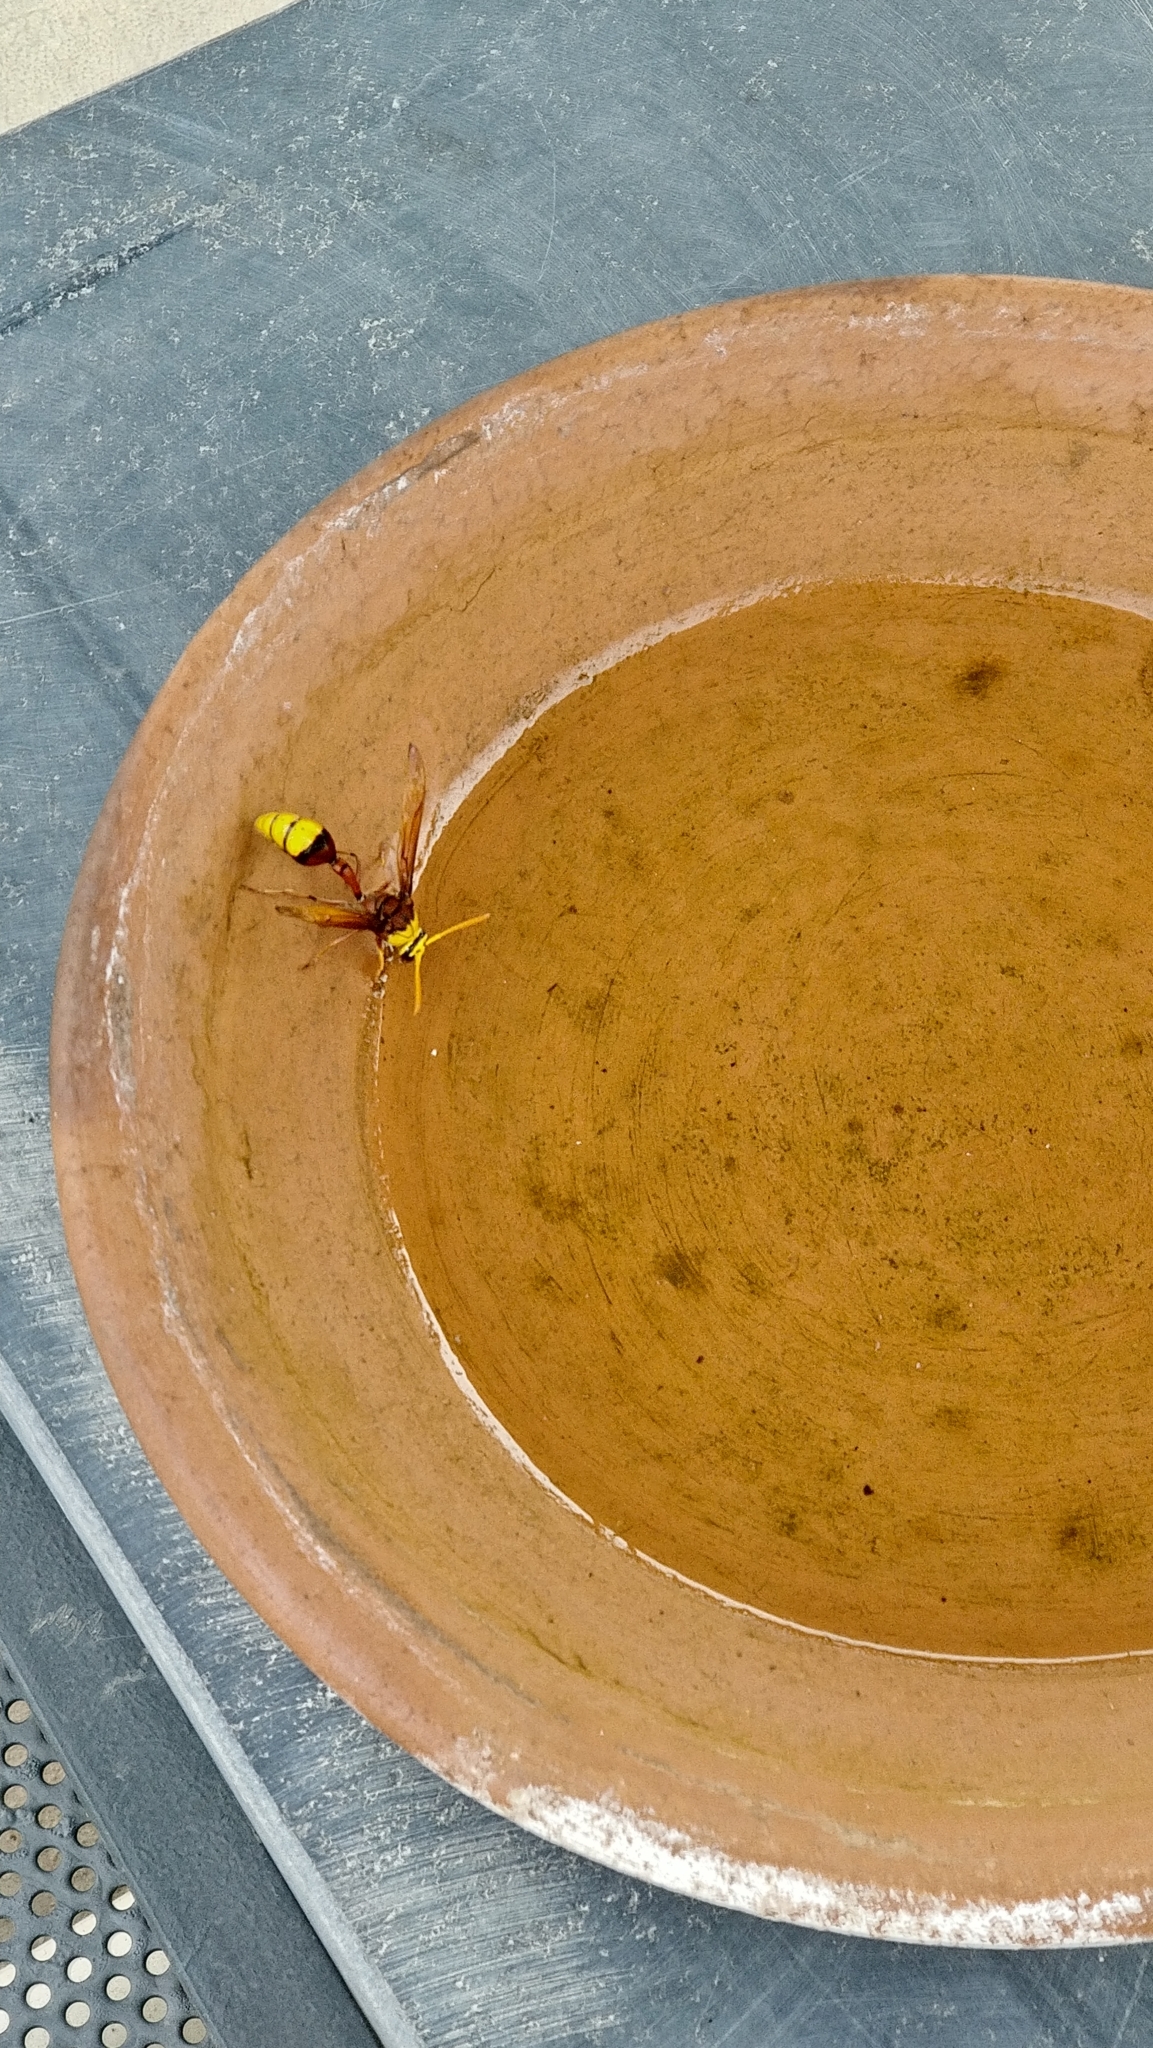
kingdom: Animalia
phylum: Arthropoda
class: Insecta
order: Hymenoptera
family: Eumenidae
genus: Delta
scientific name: Delta pyriforme
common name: Wasp
